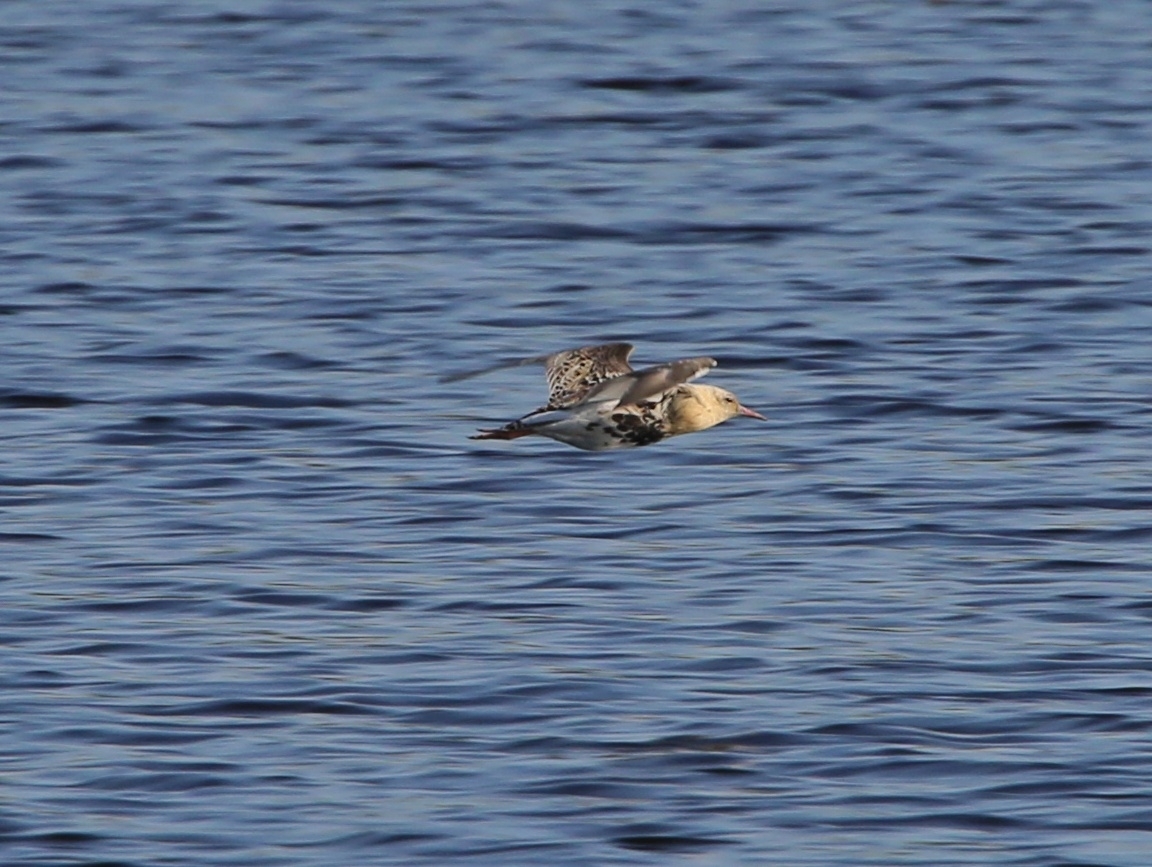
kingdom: Animalia
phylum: Chordata
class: Aves
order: Charadriiformes
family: Scolopacidae
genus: Calidris
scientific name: Calidris pugnax
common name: Ruff
